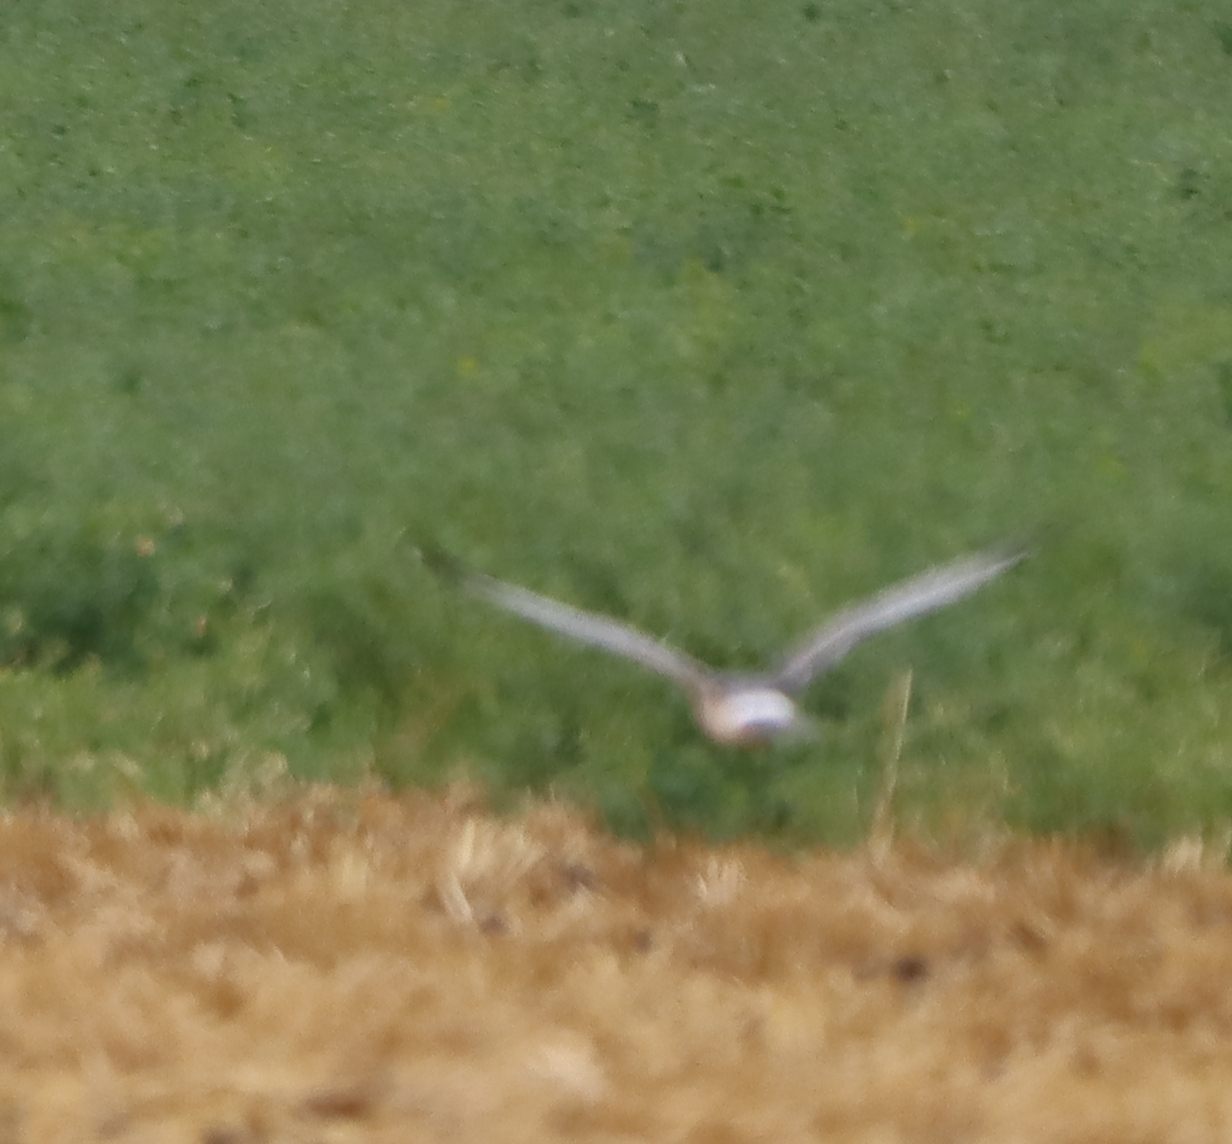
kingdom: Animalia
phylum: Chordata
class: Aves
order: Accipitriformes
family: Accipitridae
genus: Circus
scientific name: Circus cyaneus
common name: Hen harrier
